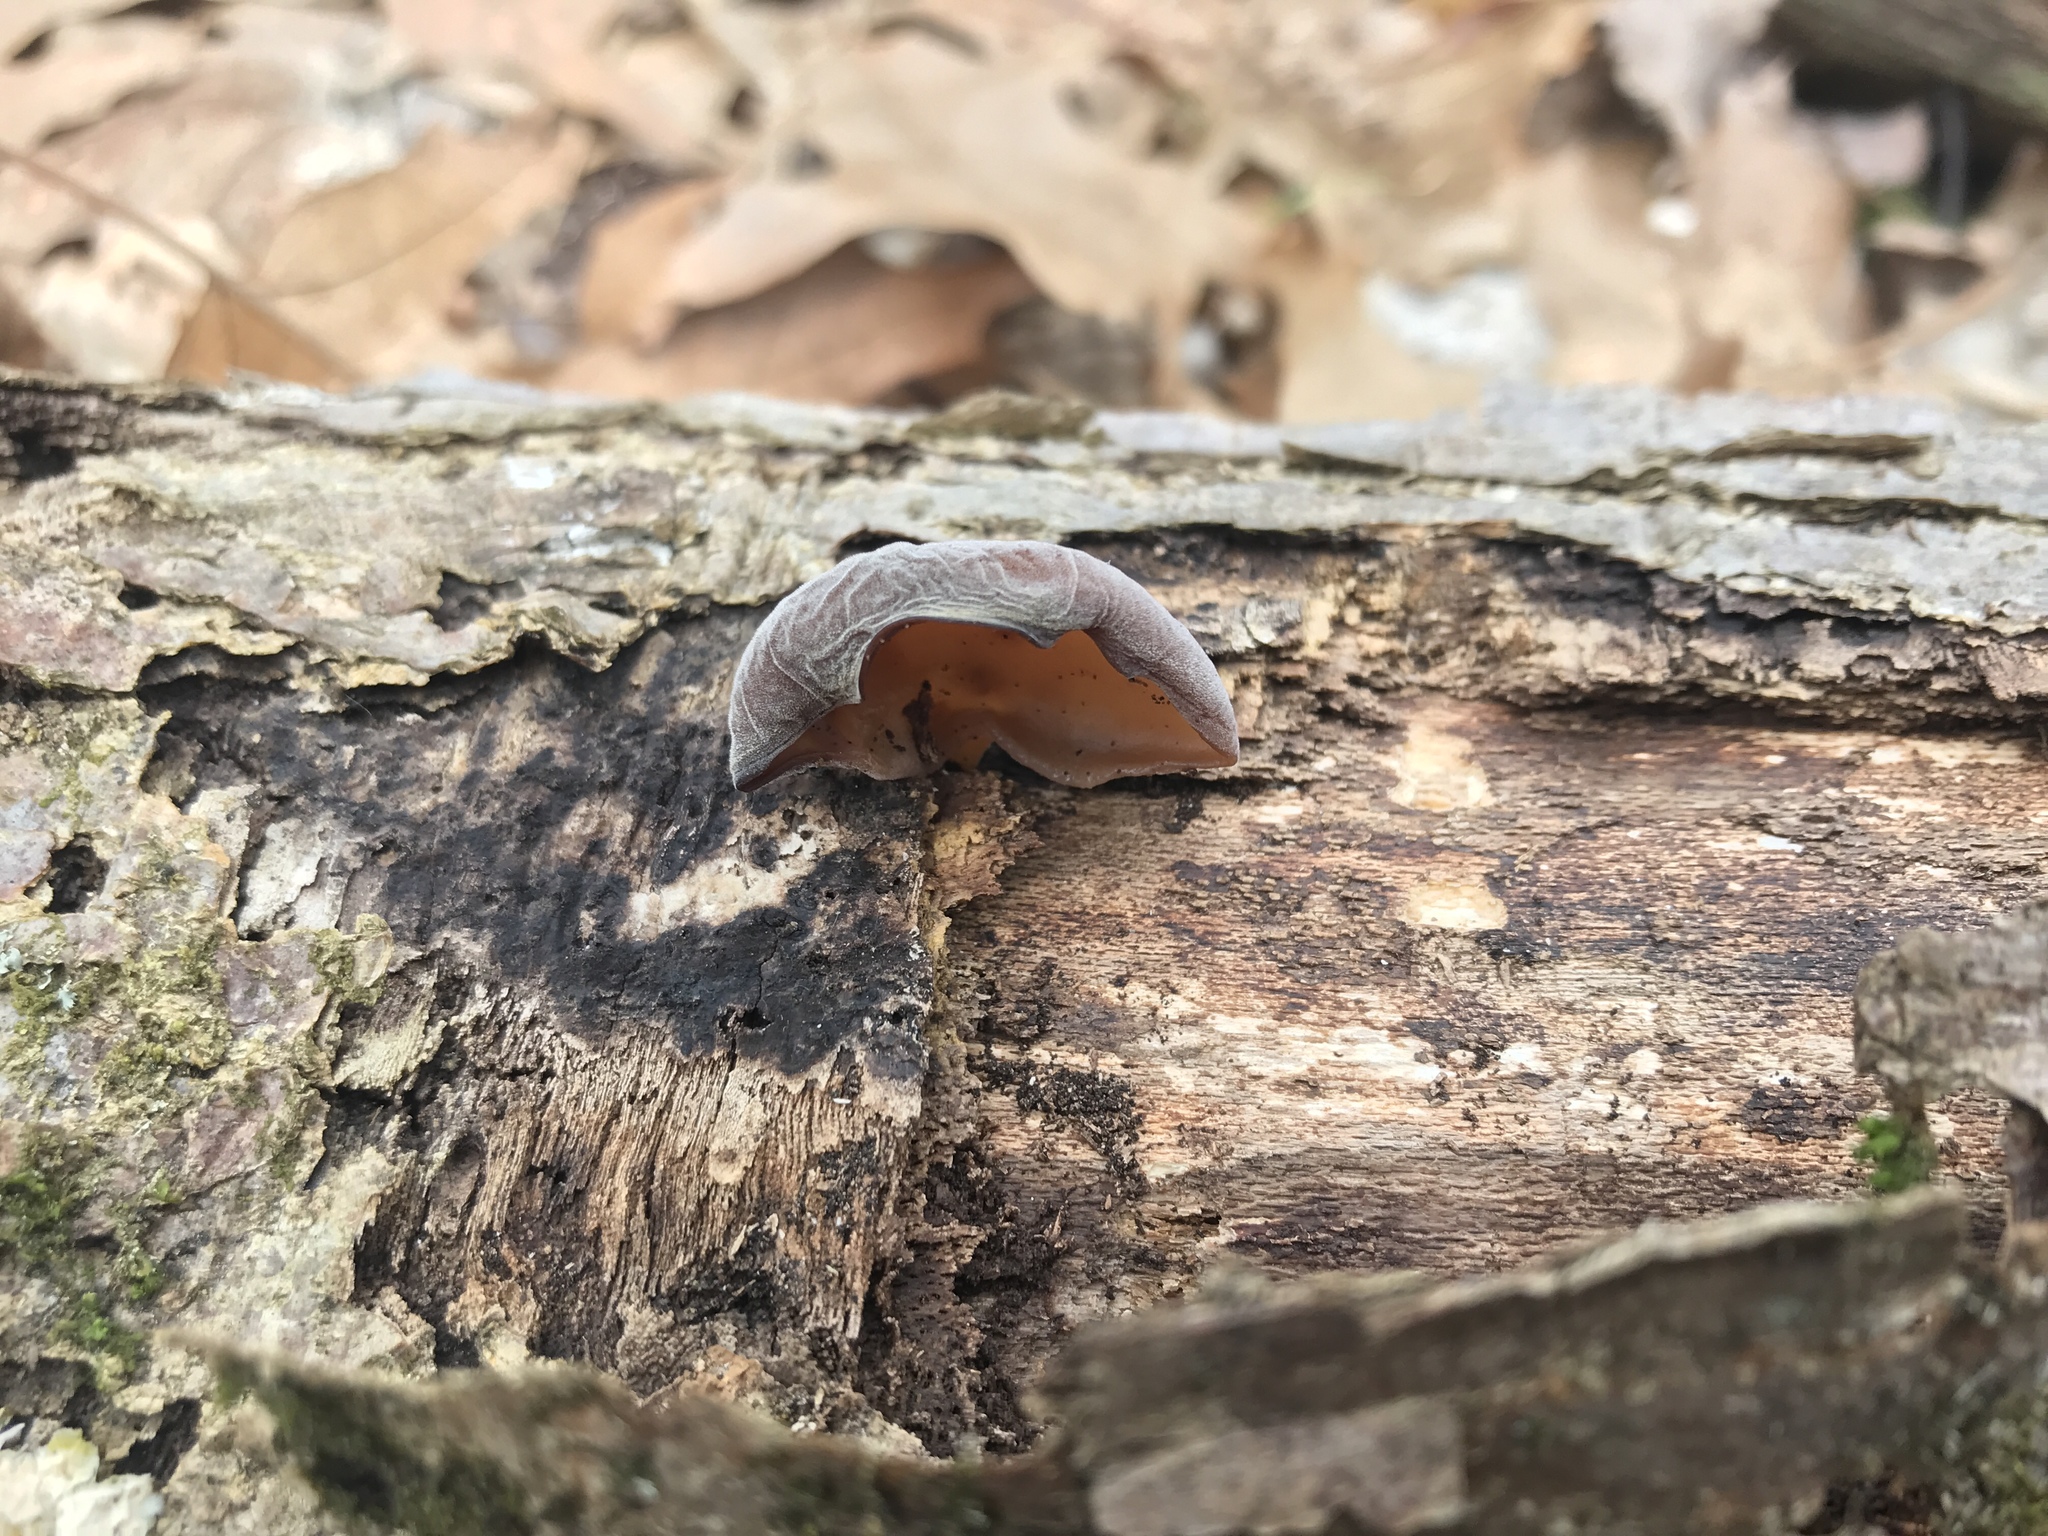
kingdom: Fungi
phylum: Basidiomycota
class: Agaricomycetes
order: Auriculariales
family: Auriculariaceae
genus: Auricularia
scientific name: Auricularia angiospermarum
